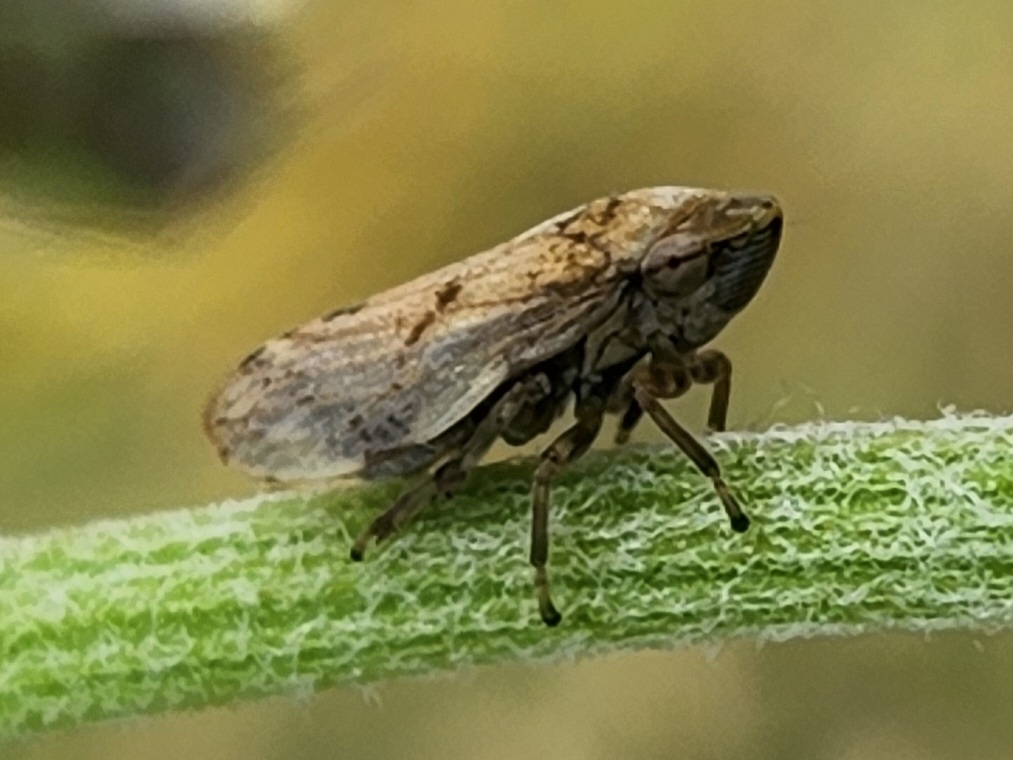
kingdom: Animalia
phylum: Arthropoda
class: Insecta
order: Hemiptera
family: Aphrophoridae
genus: Philaenus
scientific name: Philaenus spumarius
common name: Meadow spittlebug
